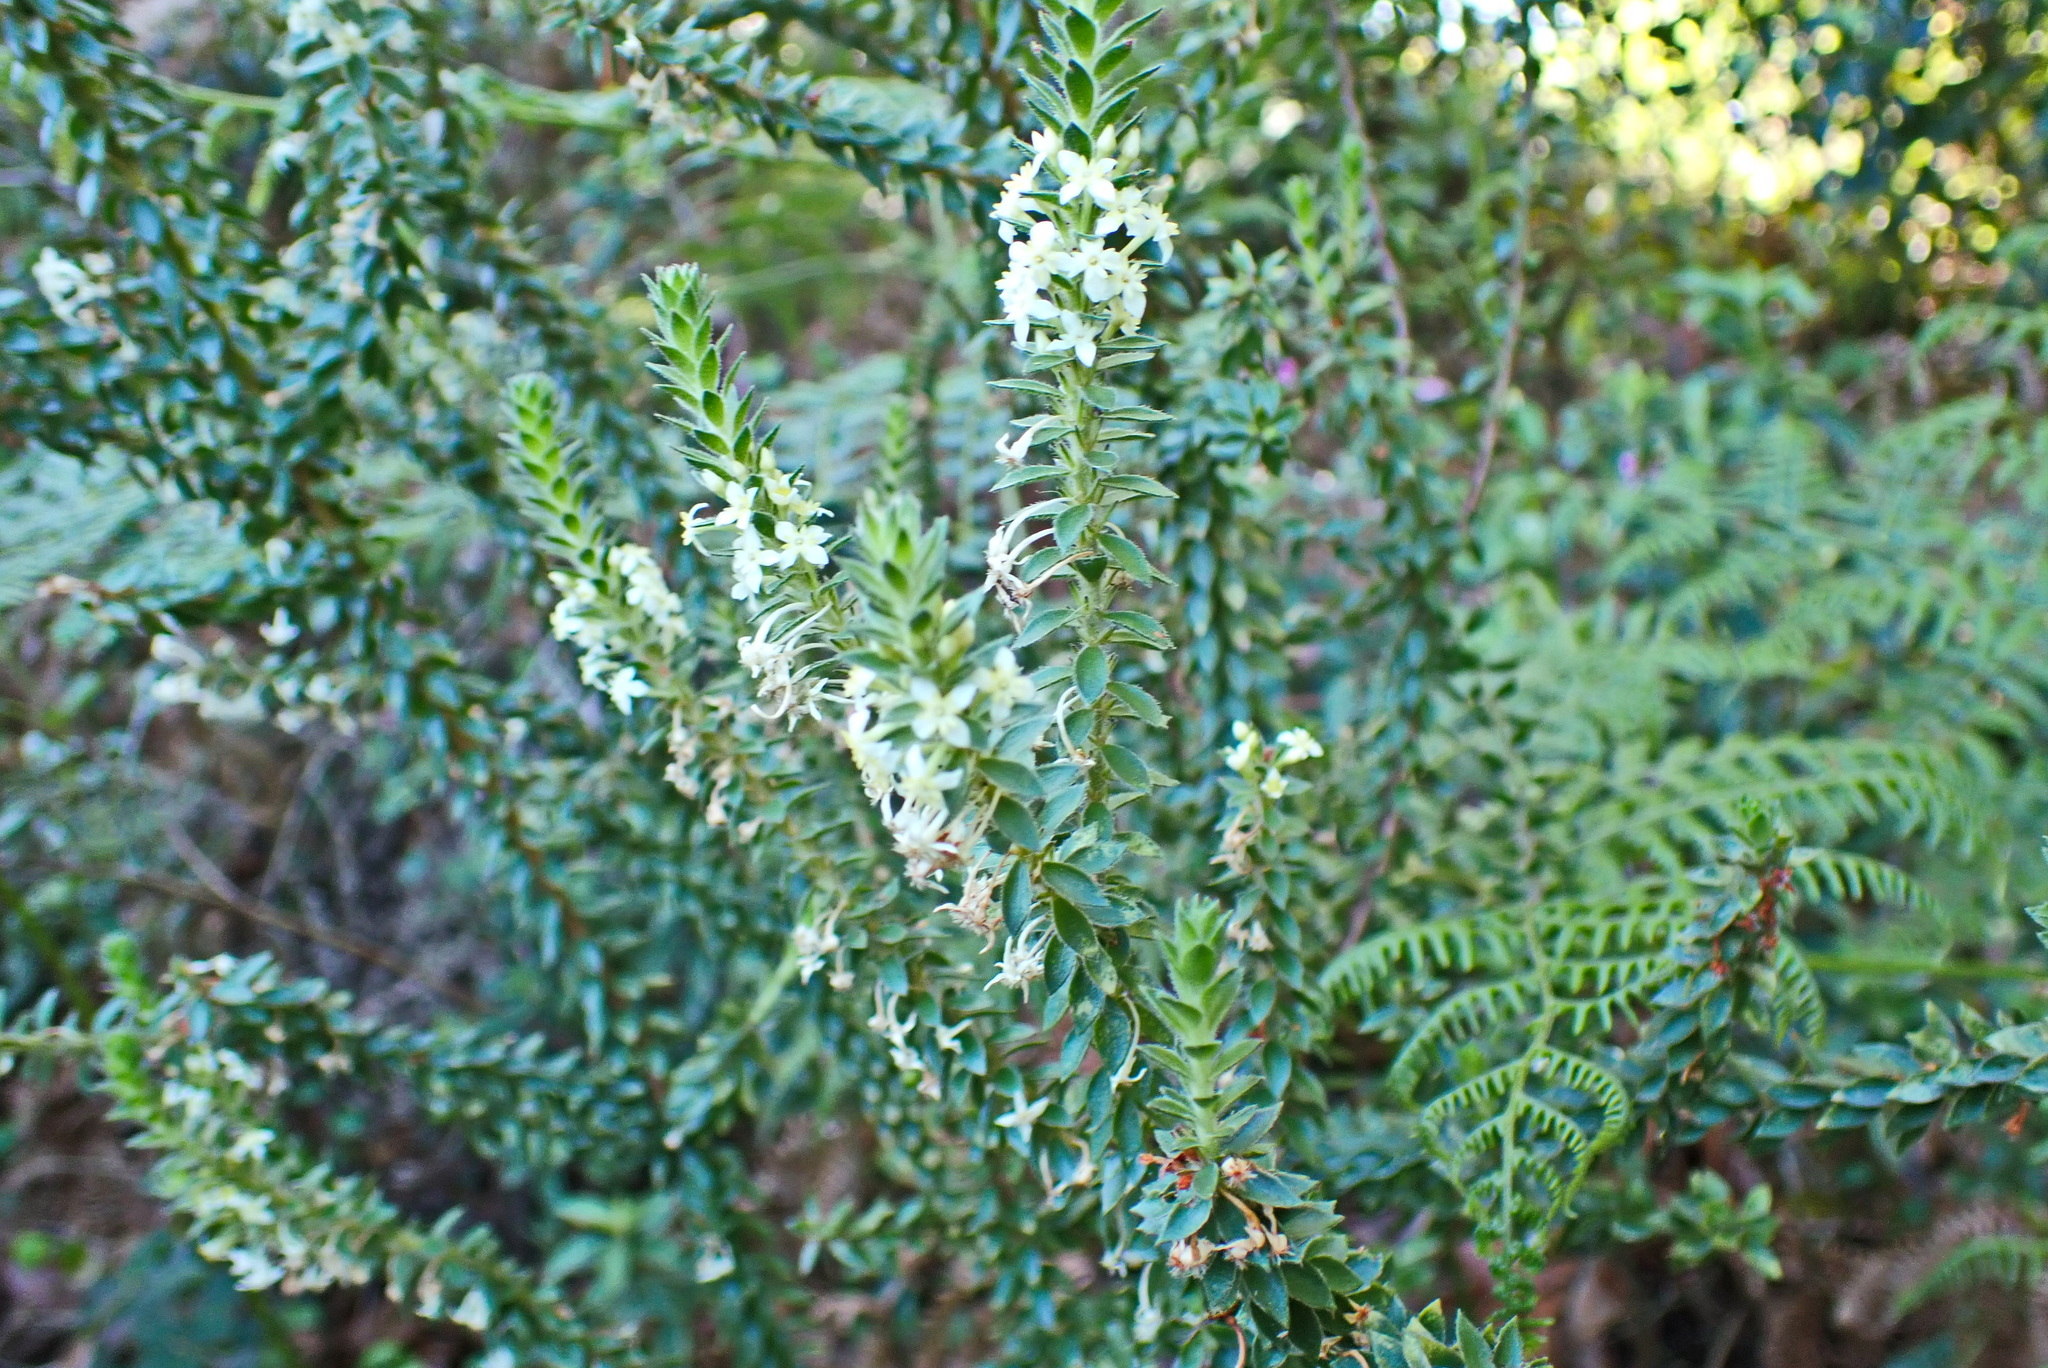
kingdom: Plantae
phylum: Tracheophyta
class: Magnoliopsida
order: Malvales
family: Thymelaeaceae
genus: Struthiola
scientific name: Struthiola hirsuta
